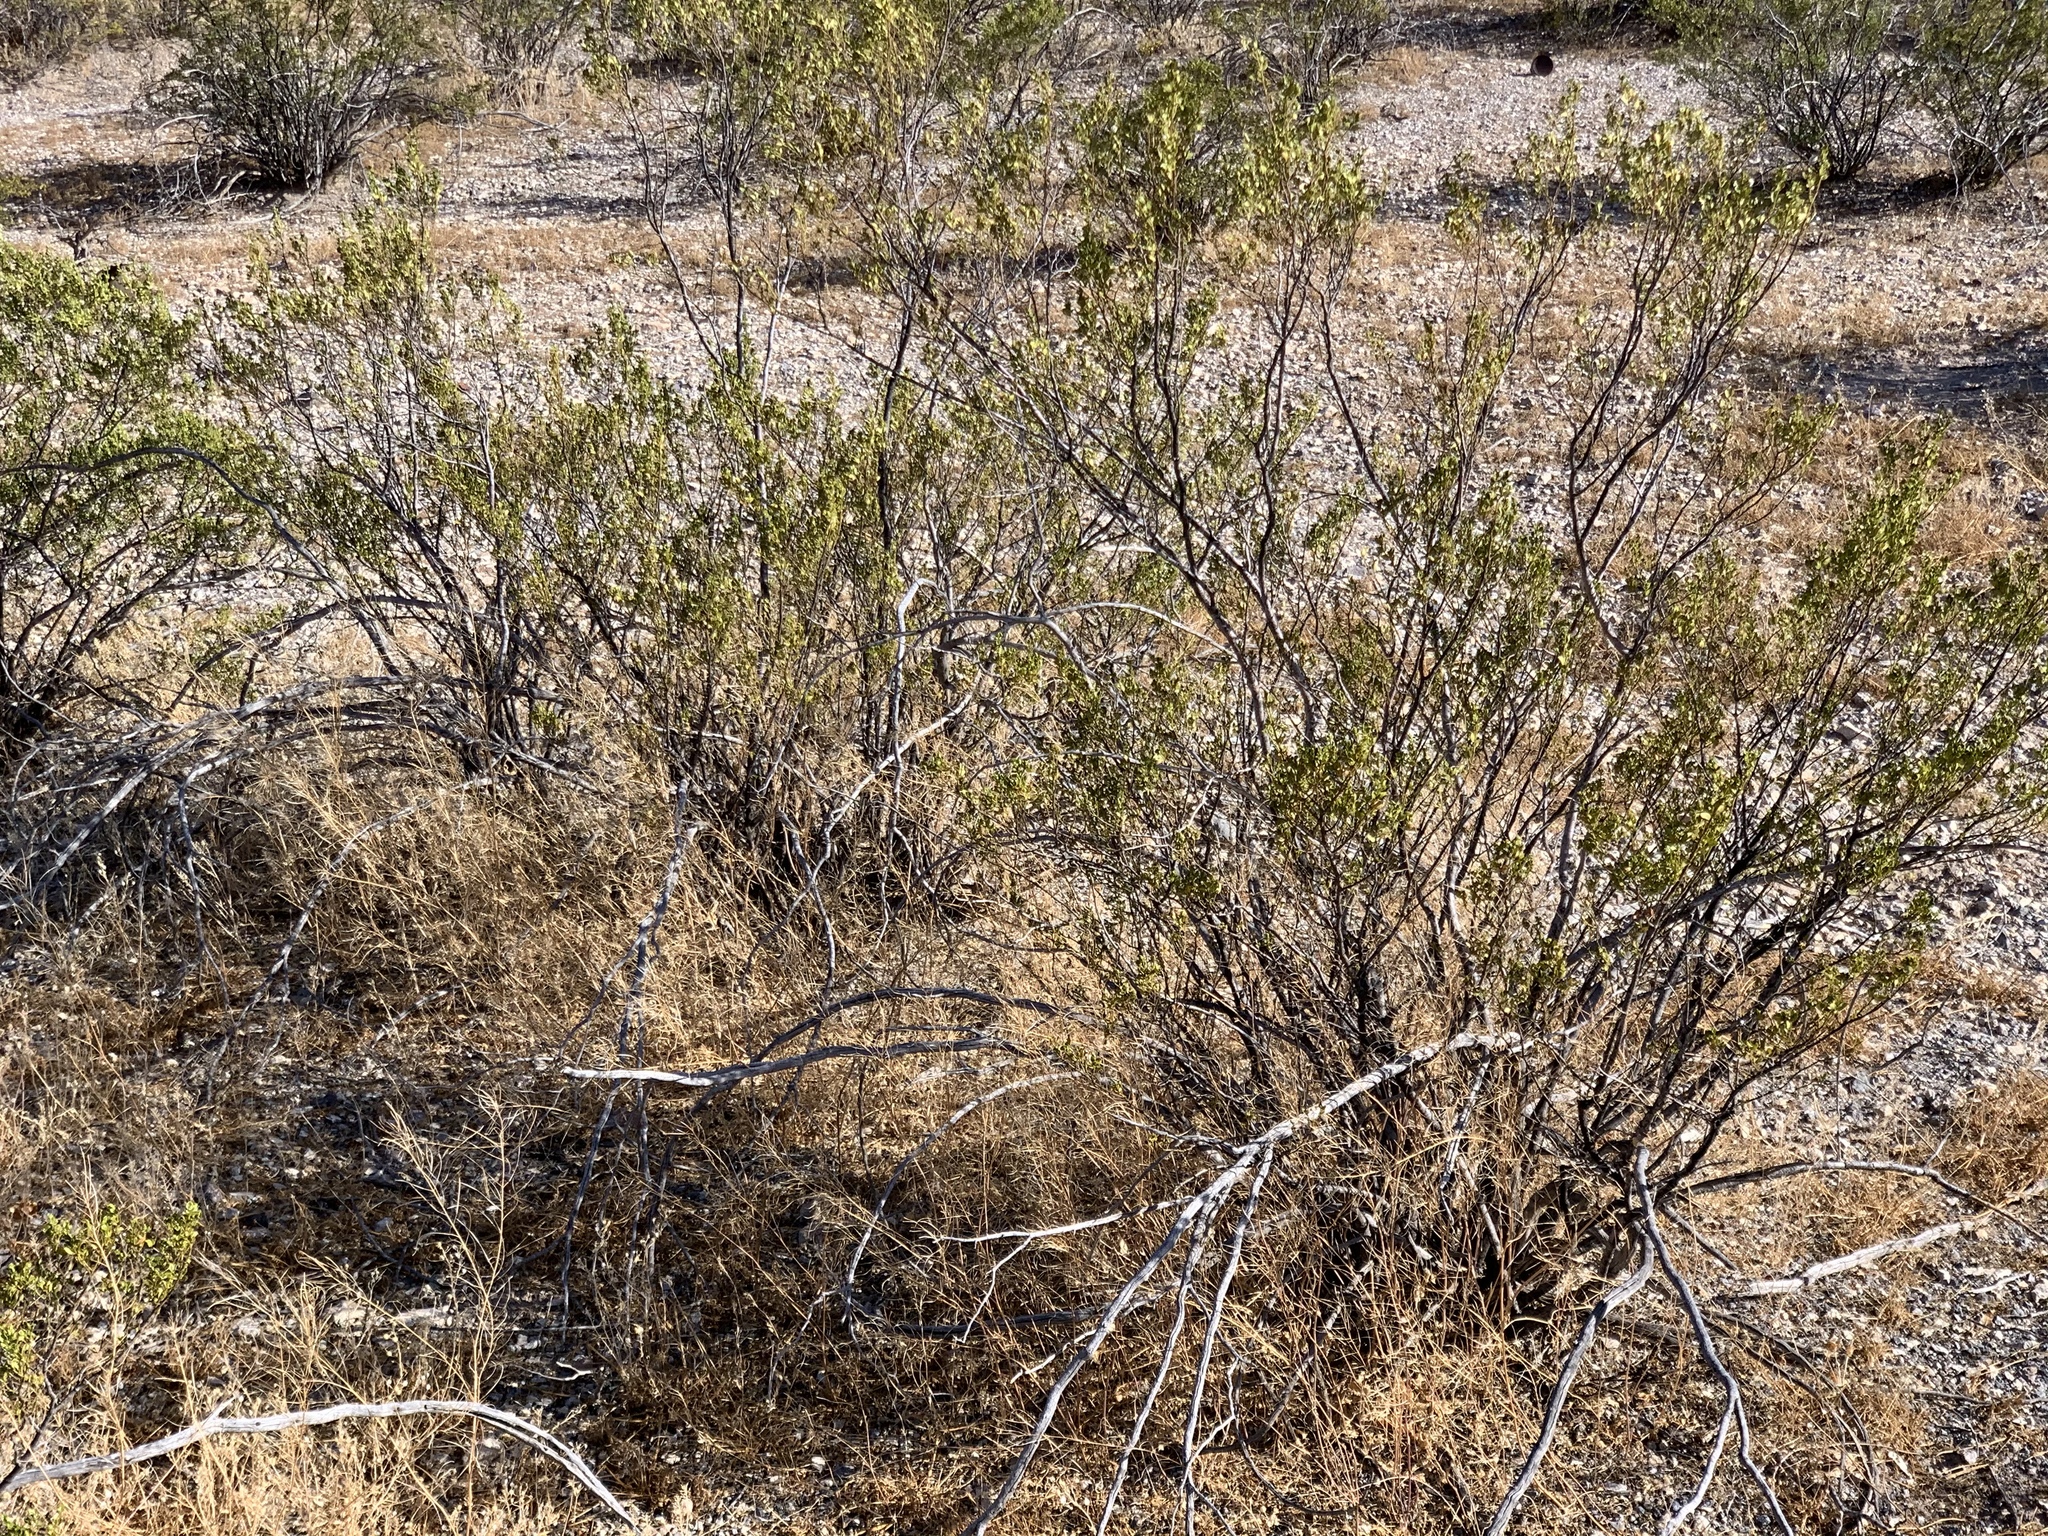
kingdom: Plantae
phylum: Tracheophyta
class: Magnoliopsida
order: Zygophyllales
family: Zygophyllaceae
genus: Larrea
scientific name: Larrea tridentata
